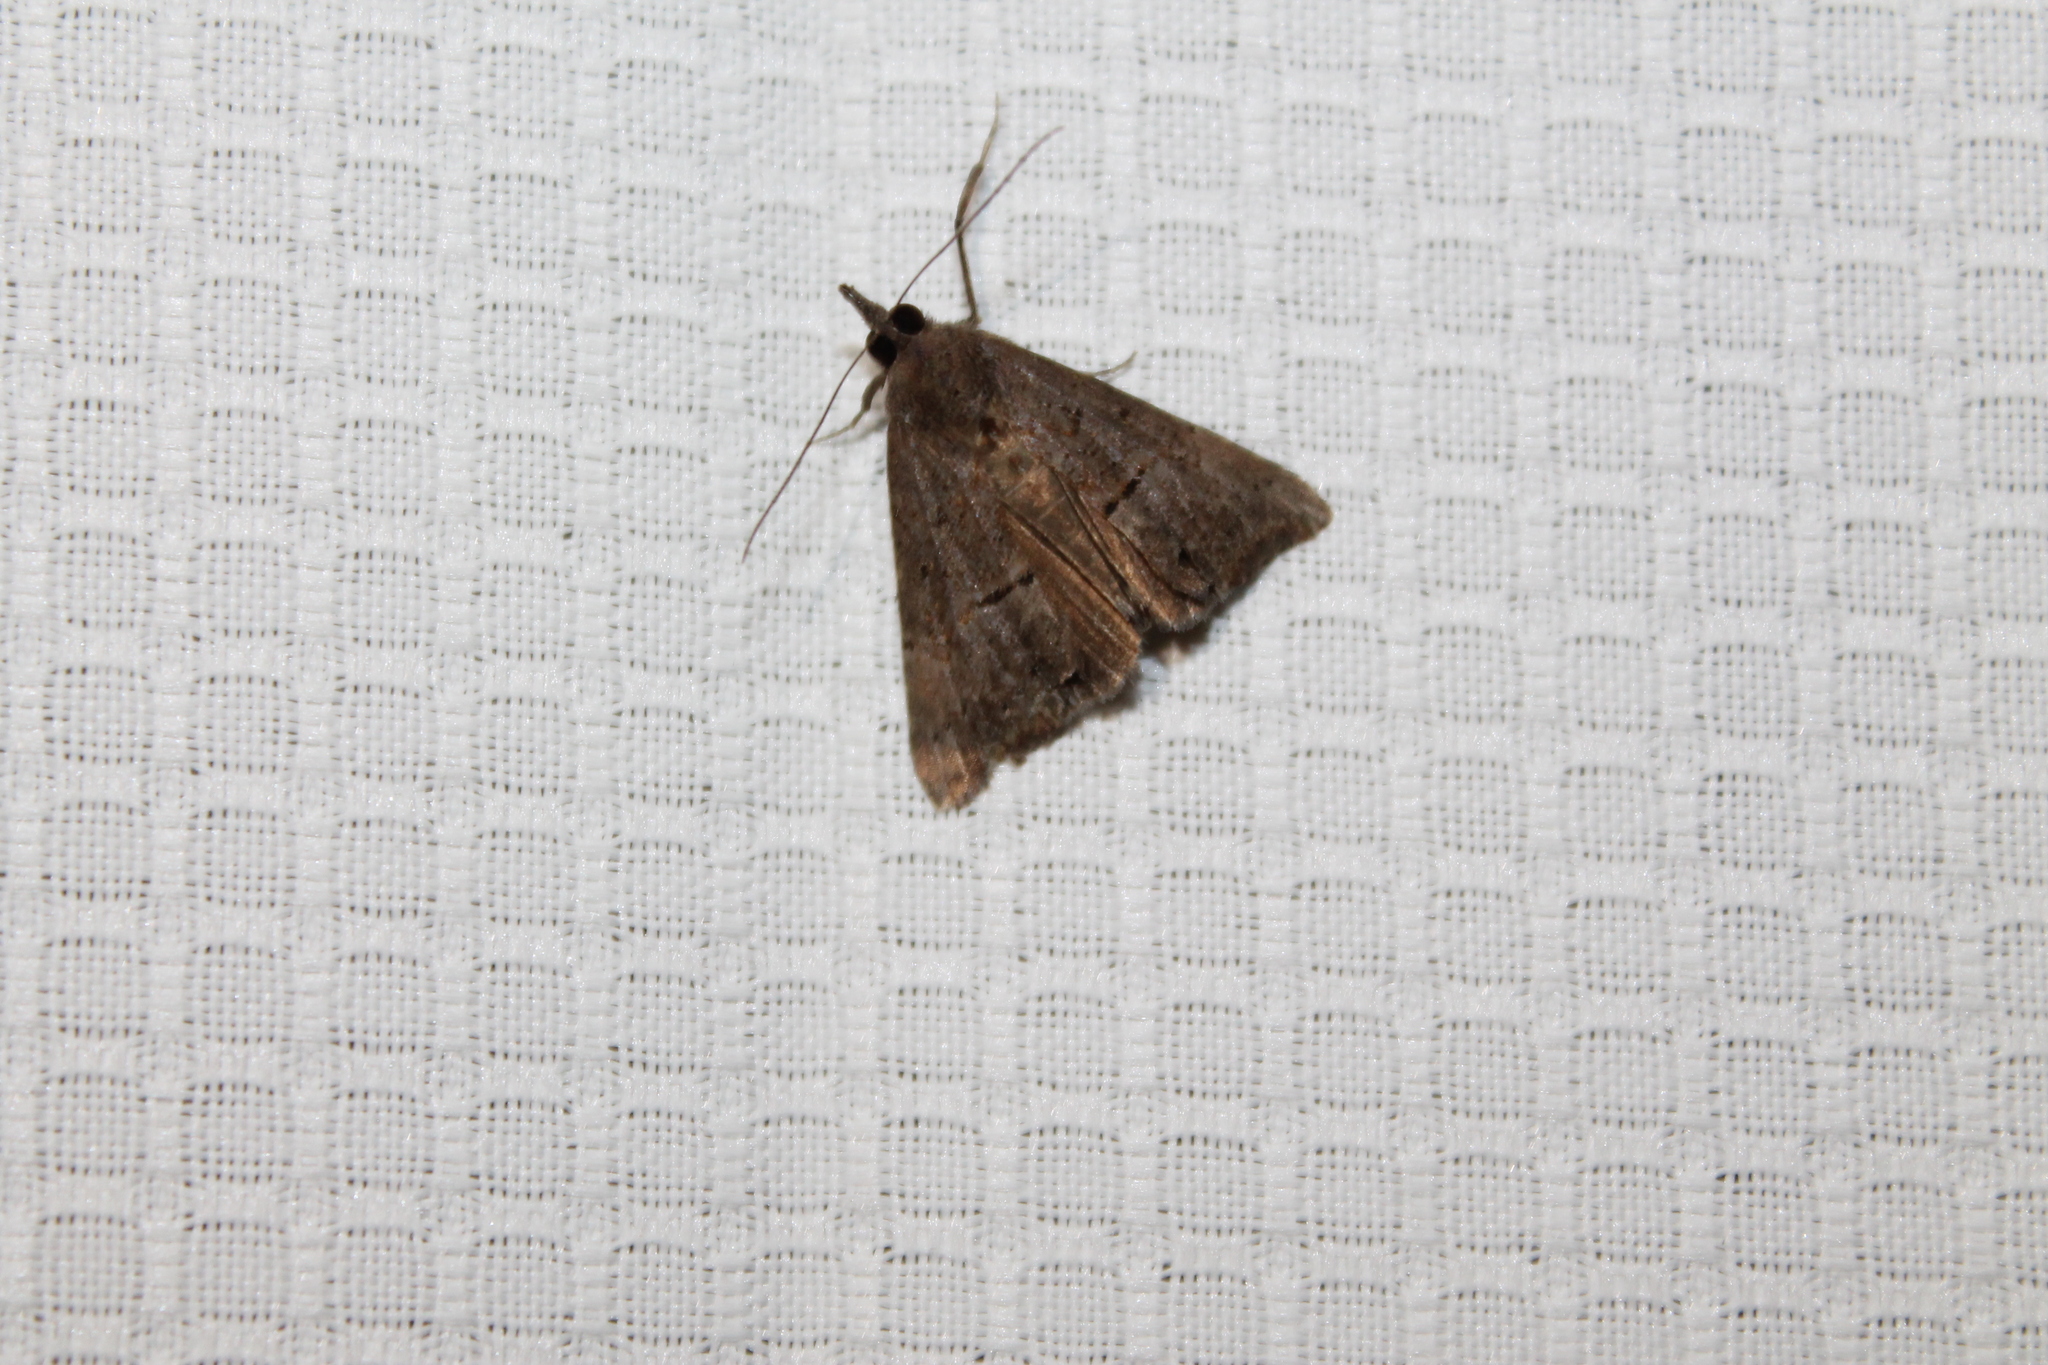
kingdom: Animalia
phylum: Arthropoda
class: Insecta
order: Lepidoptera
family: Erebidae
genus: Hypena
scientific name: Hypena scabra
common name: Green cloverworm
